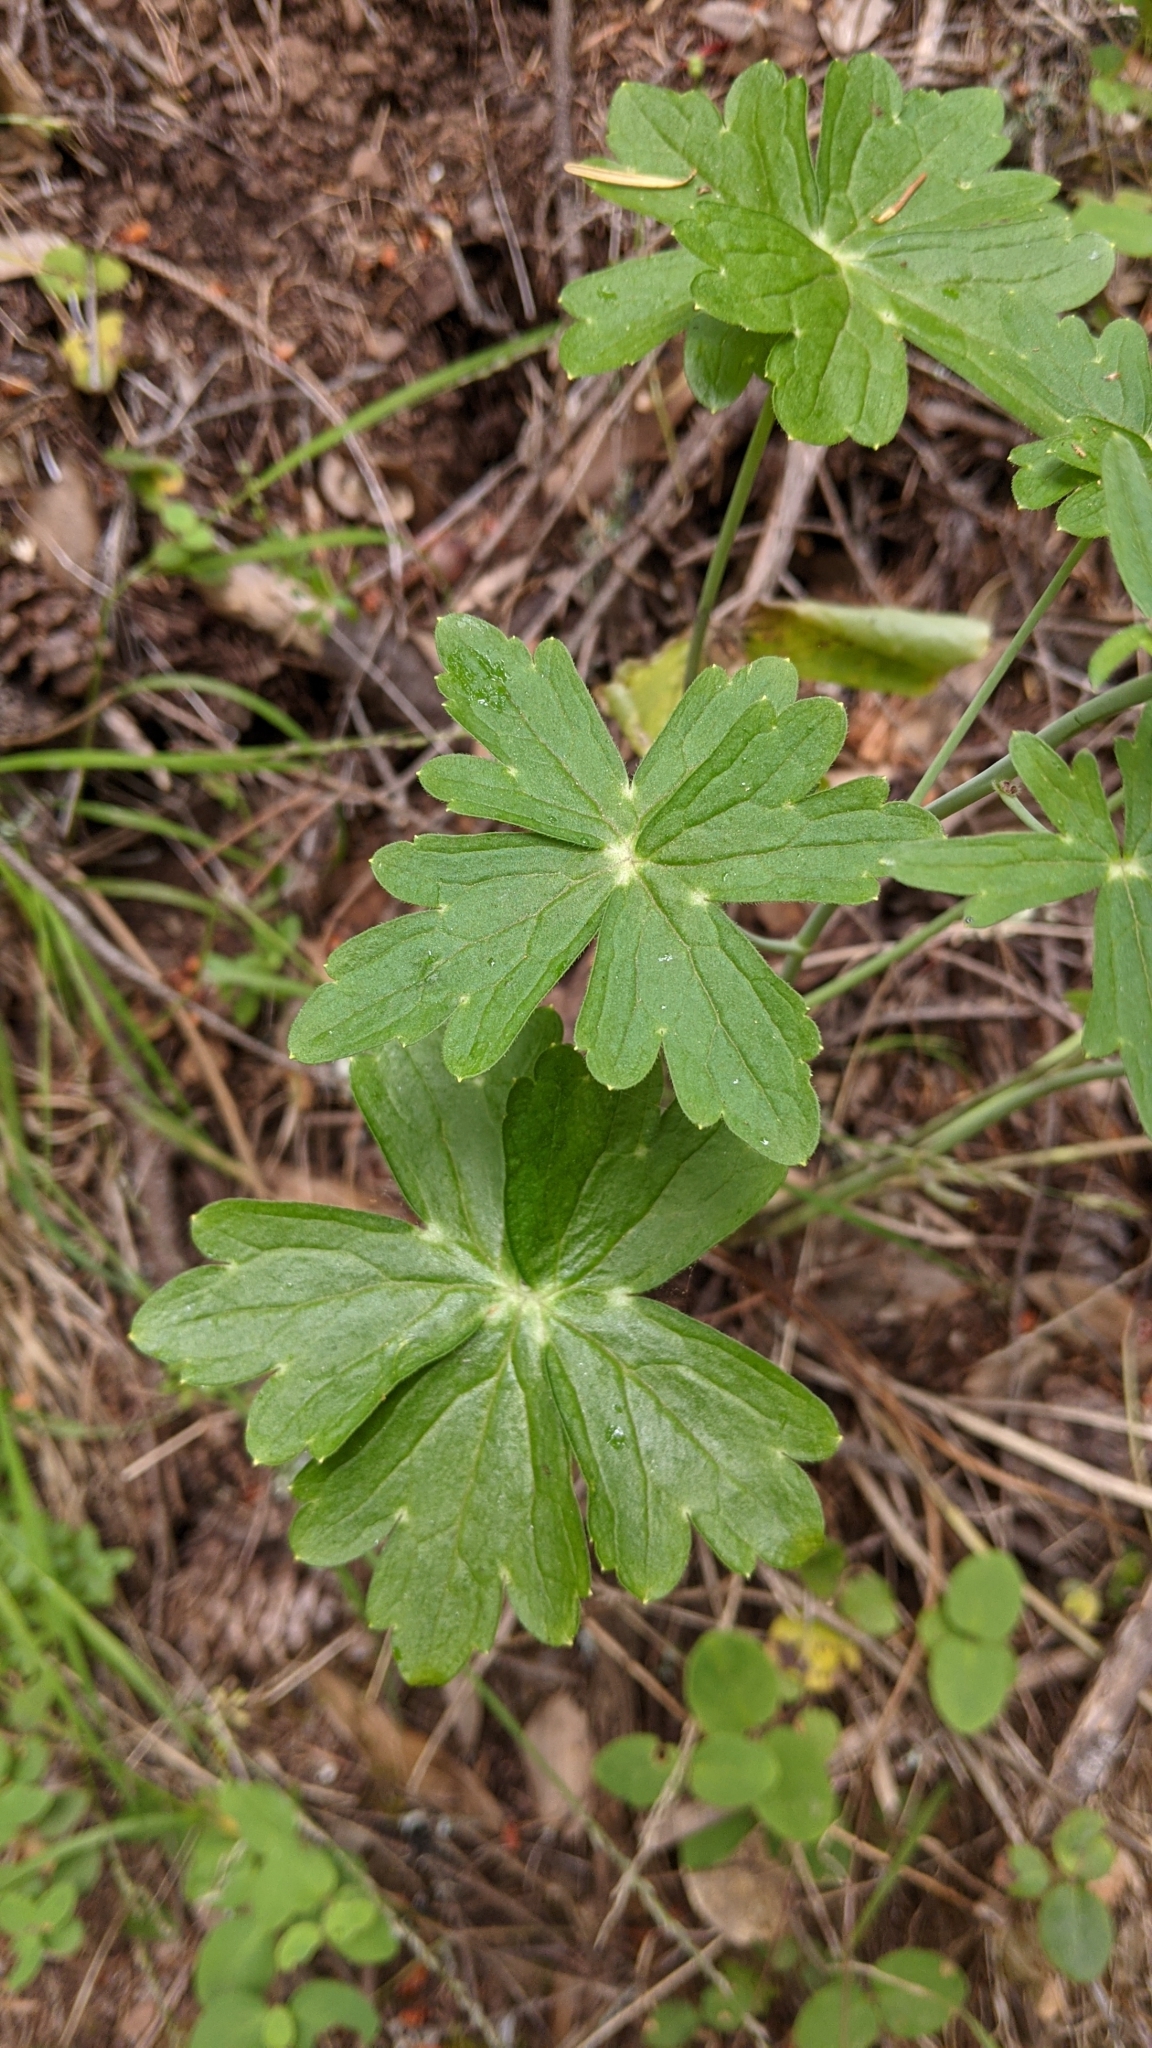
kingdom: Plantae
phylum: Tracheophyta
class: Magnoliopsida
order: Ranunculales
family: Ranunculaceae
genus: Delphinium
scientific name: Delphinium nudicaule
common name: Red larkspur
